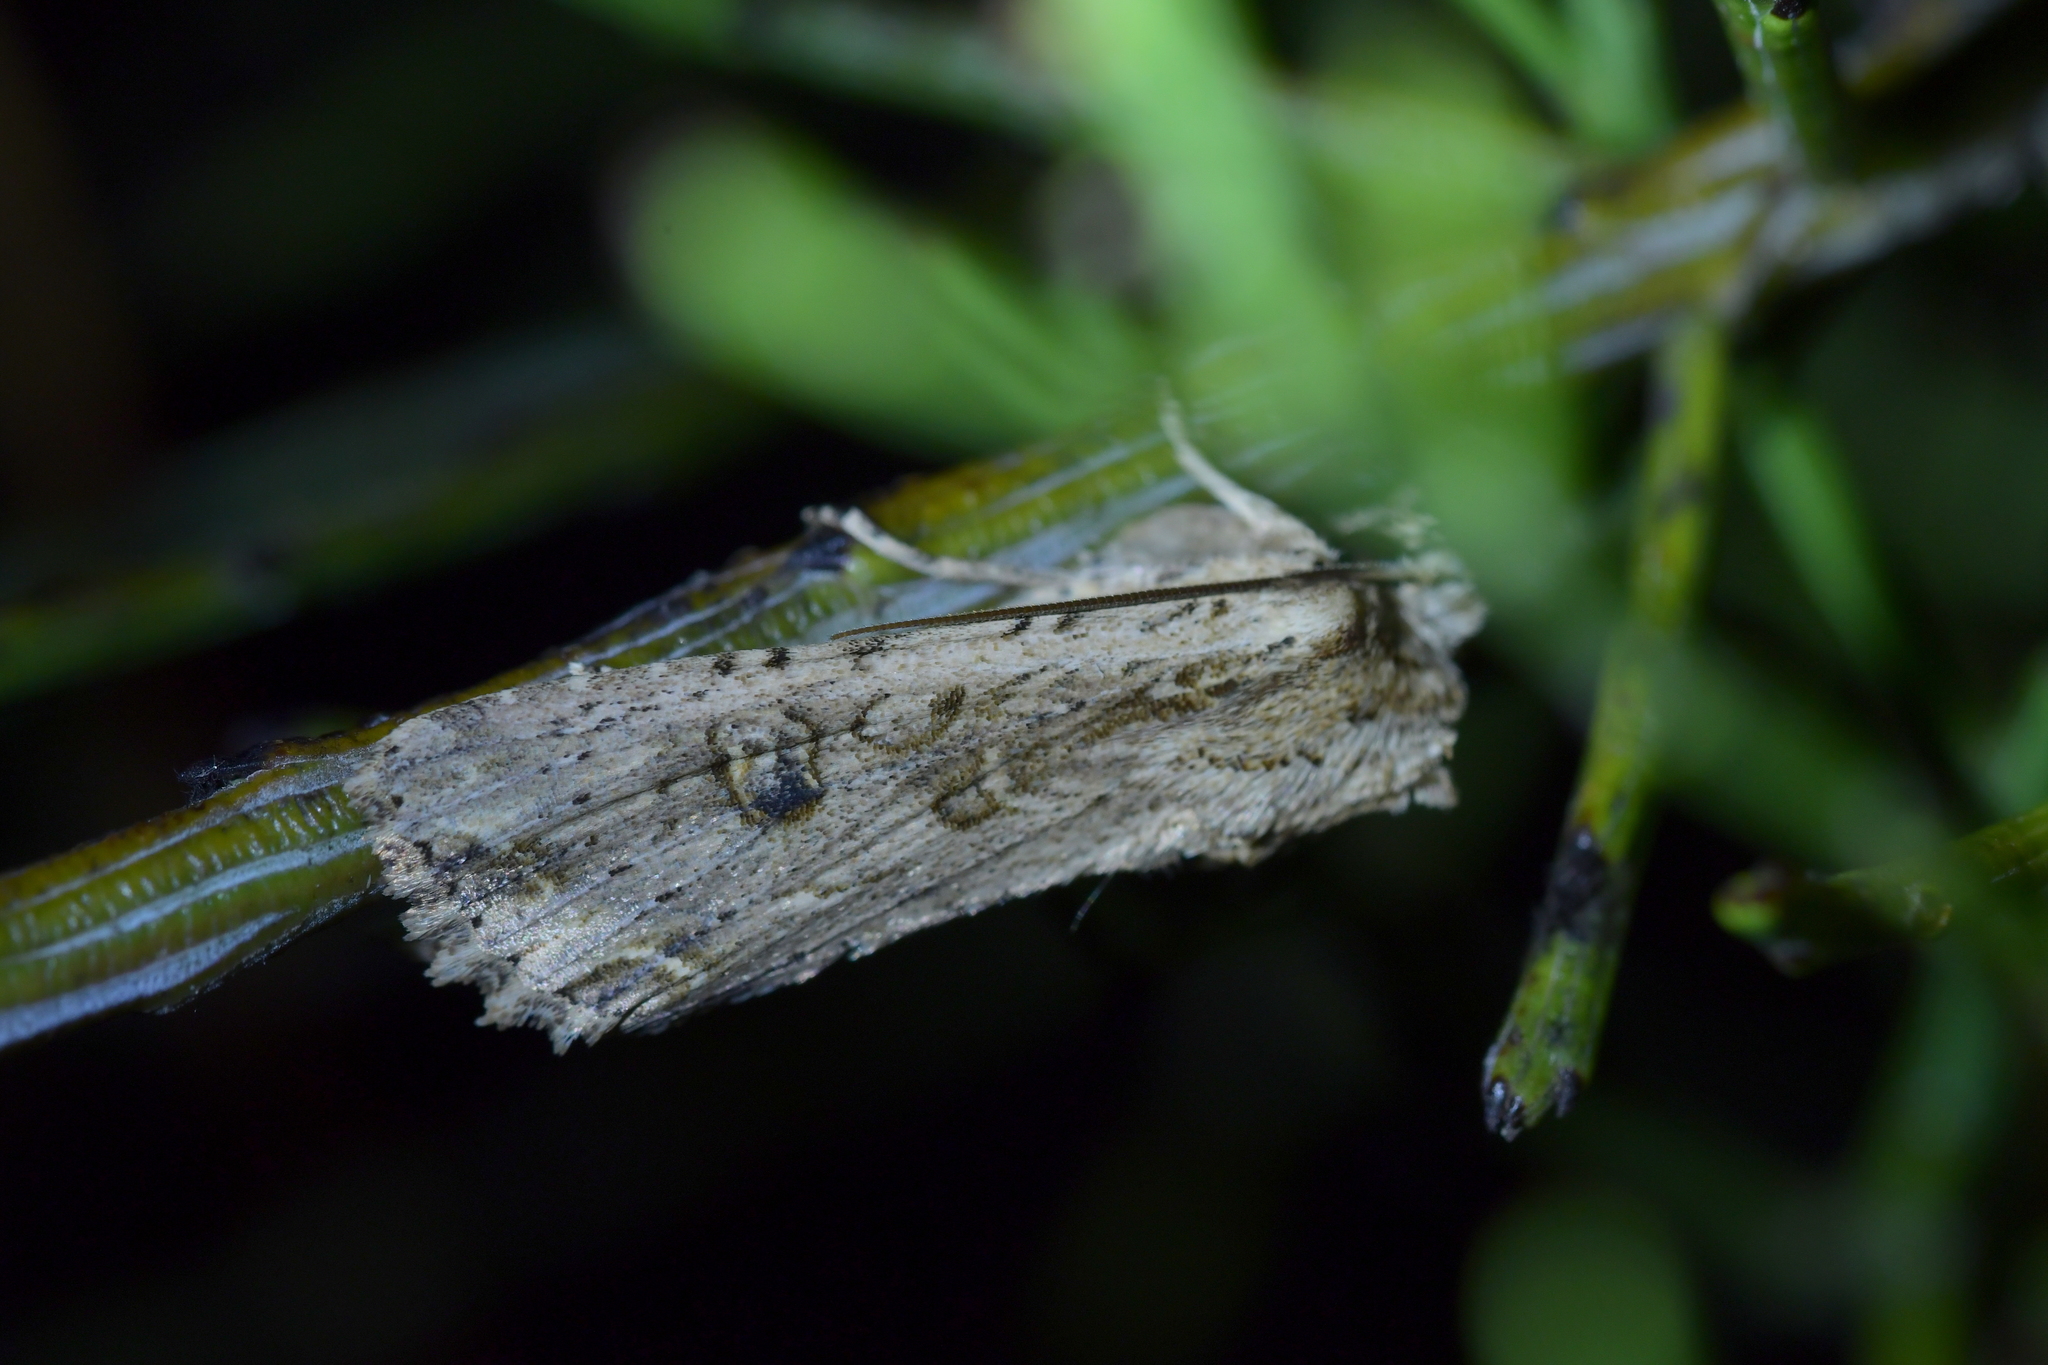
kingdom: Animalia
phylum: Arthropoda
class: Insecta
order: Lepidoptera
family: Noctuidae
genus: Ichneutica
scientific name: Ichneutica lignana
